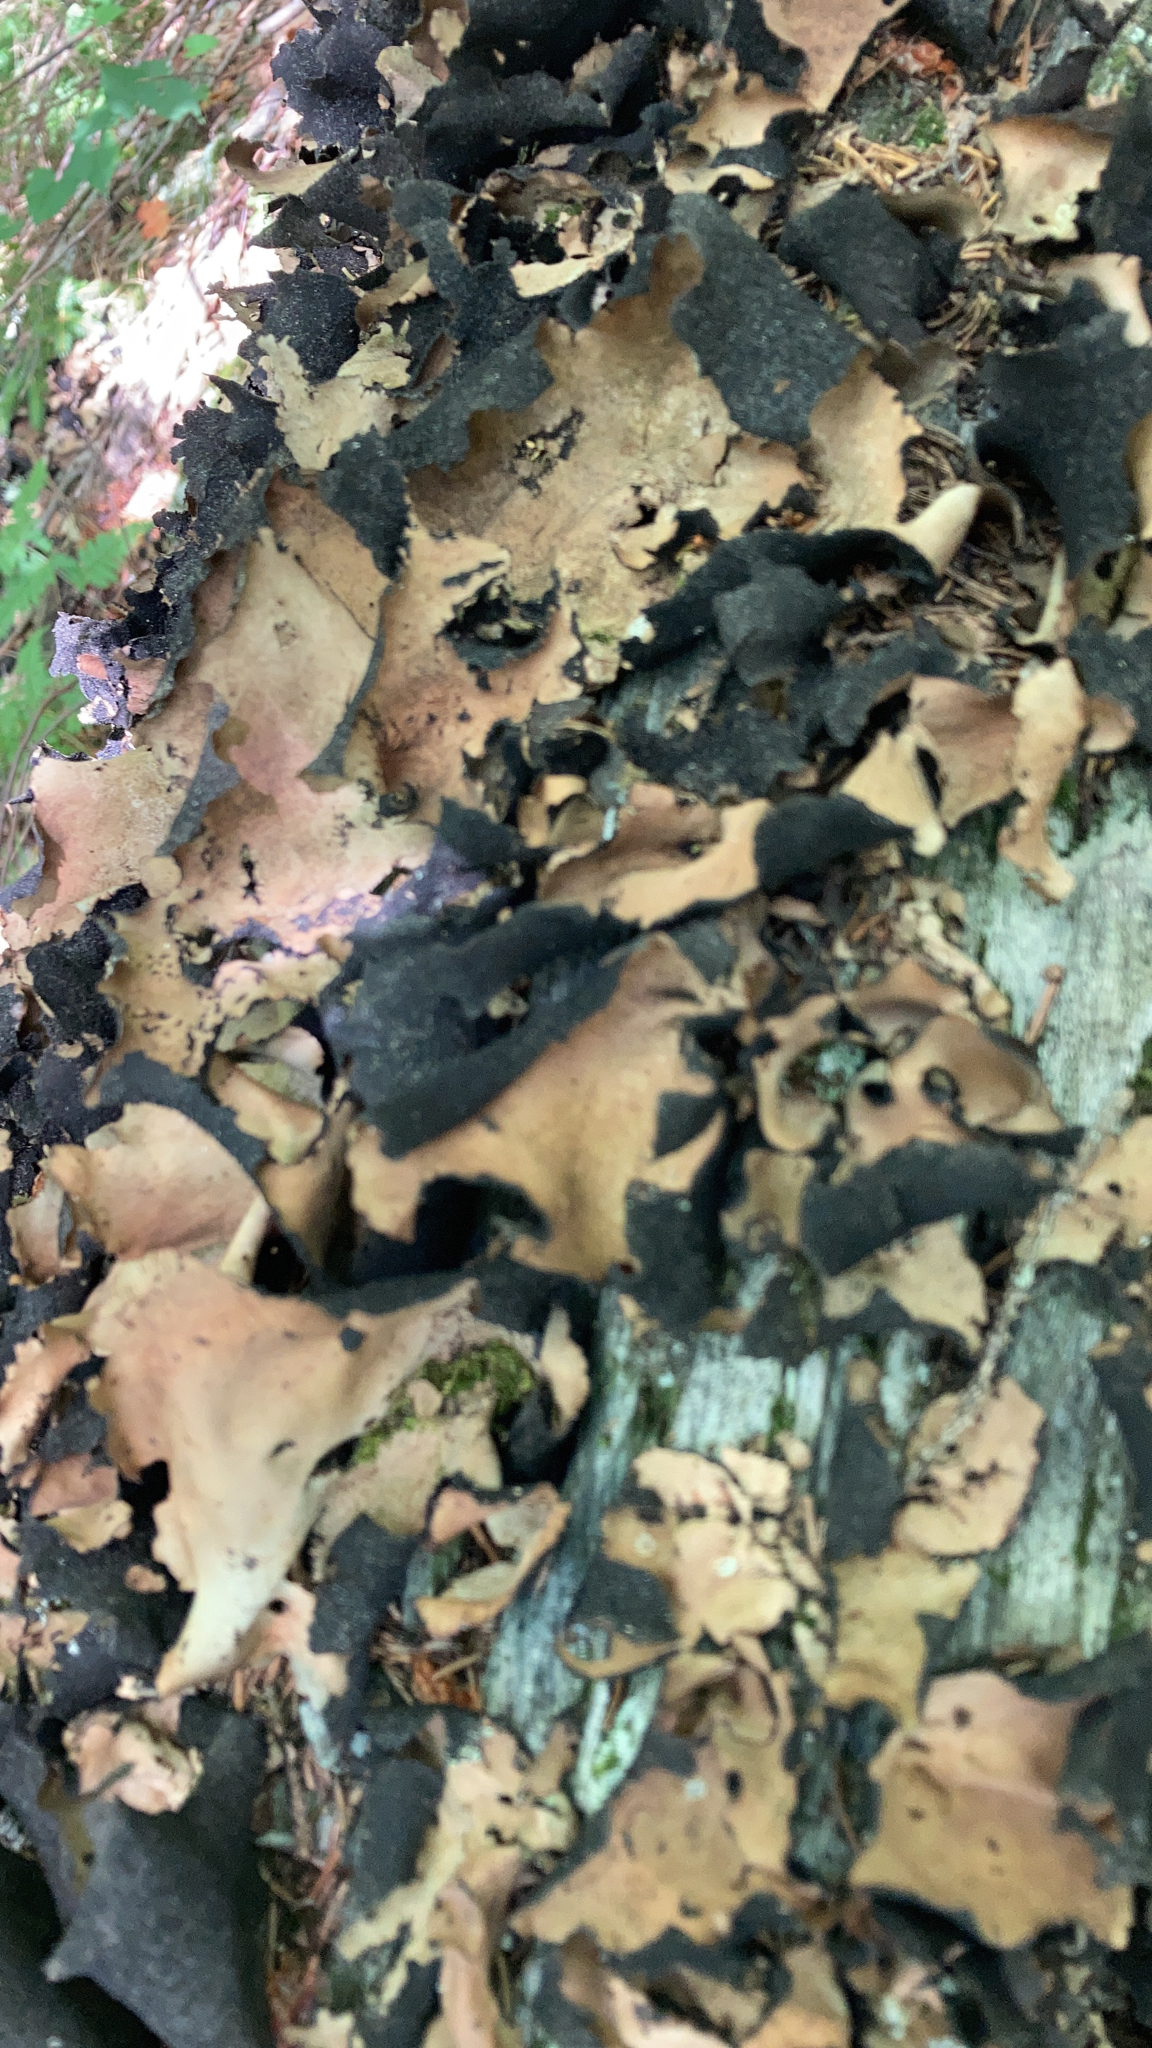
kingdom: Fungi
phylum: Ascomycota
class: Lecanoromycetes
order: Umbilicariales
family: Umbilicariaceae
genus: Umbilicaria
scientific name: Umbilicaria mammulata
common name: Smooth rock tripe
